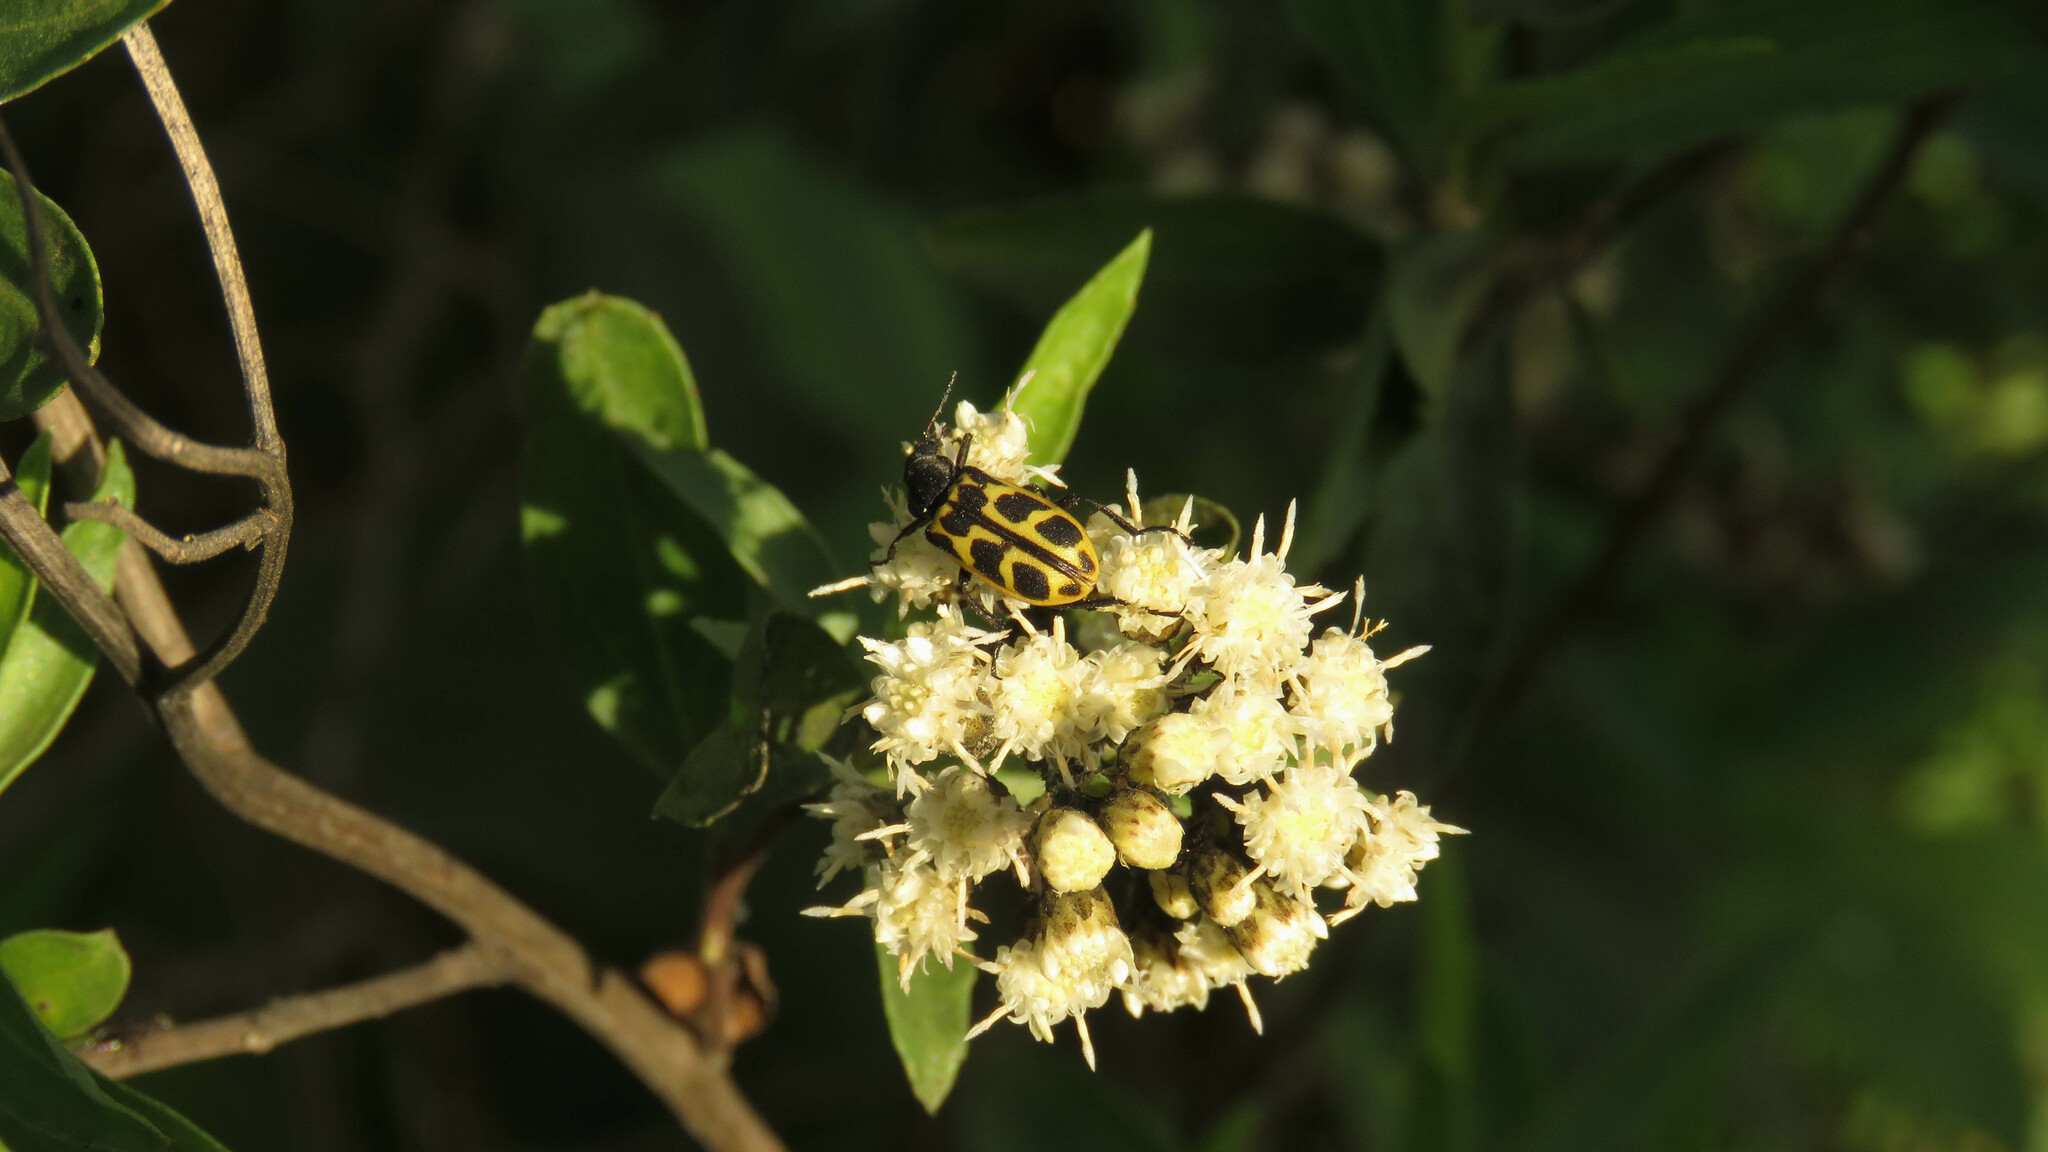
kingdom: Animalia
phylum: Arthropoda
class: Insecta
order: Coleoptera
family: Melyridae
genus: Astylus
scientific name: Astylus atromaculatus
